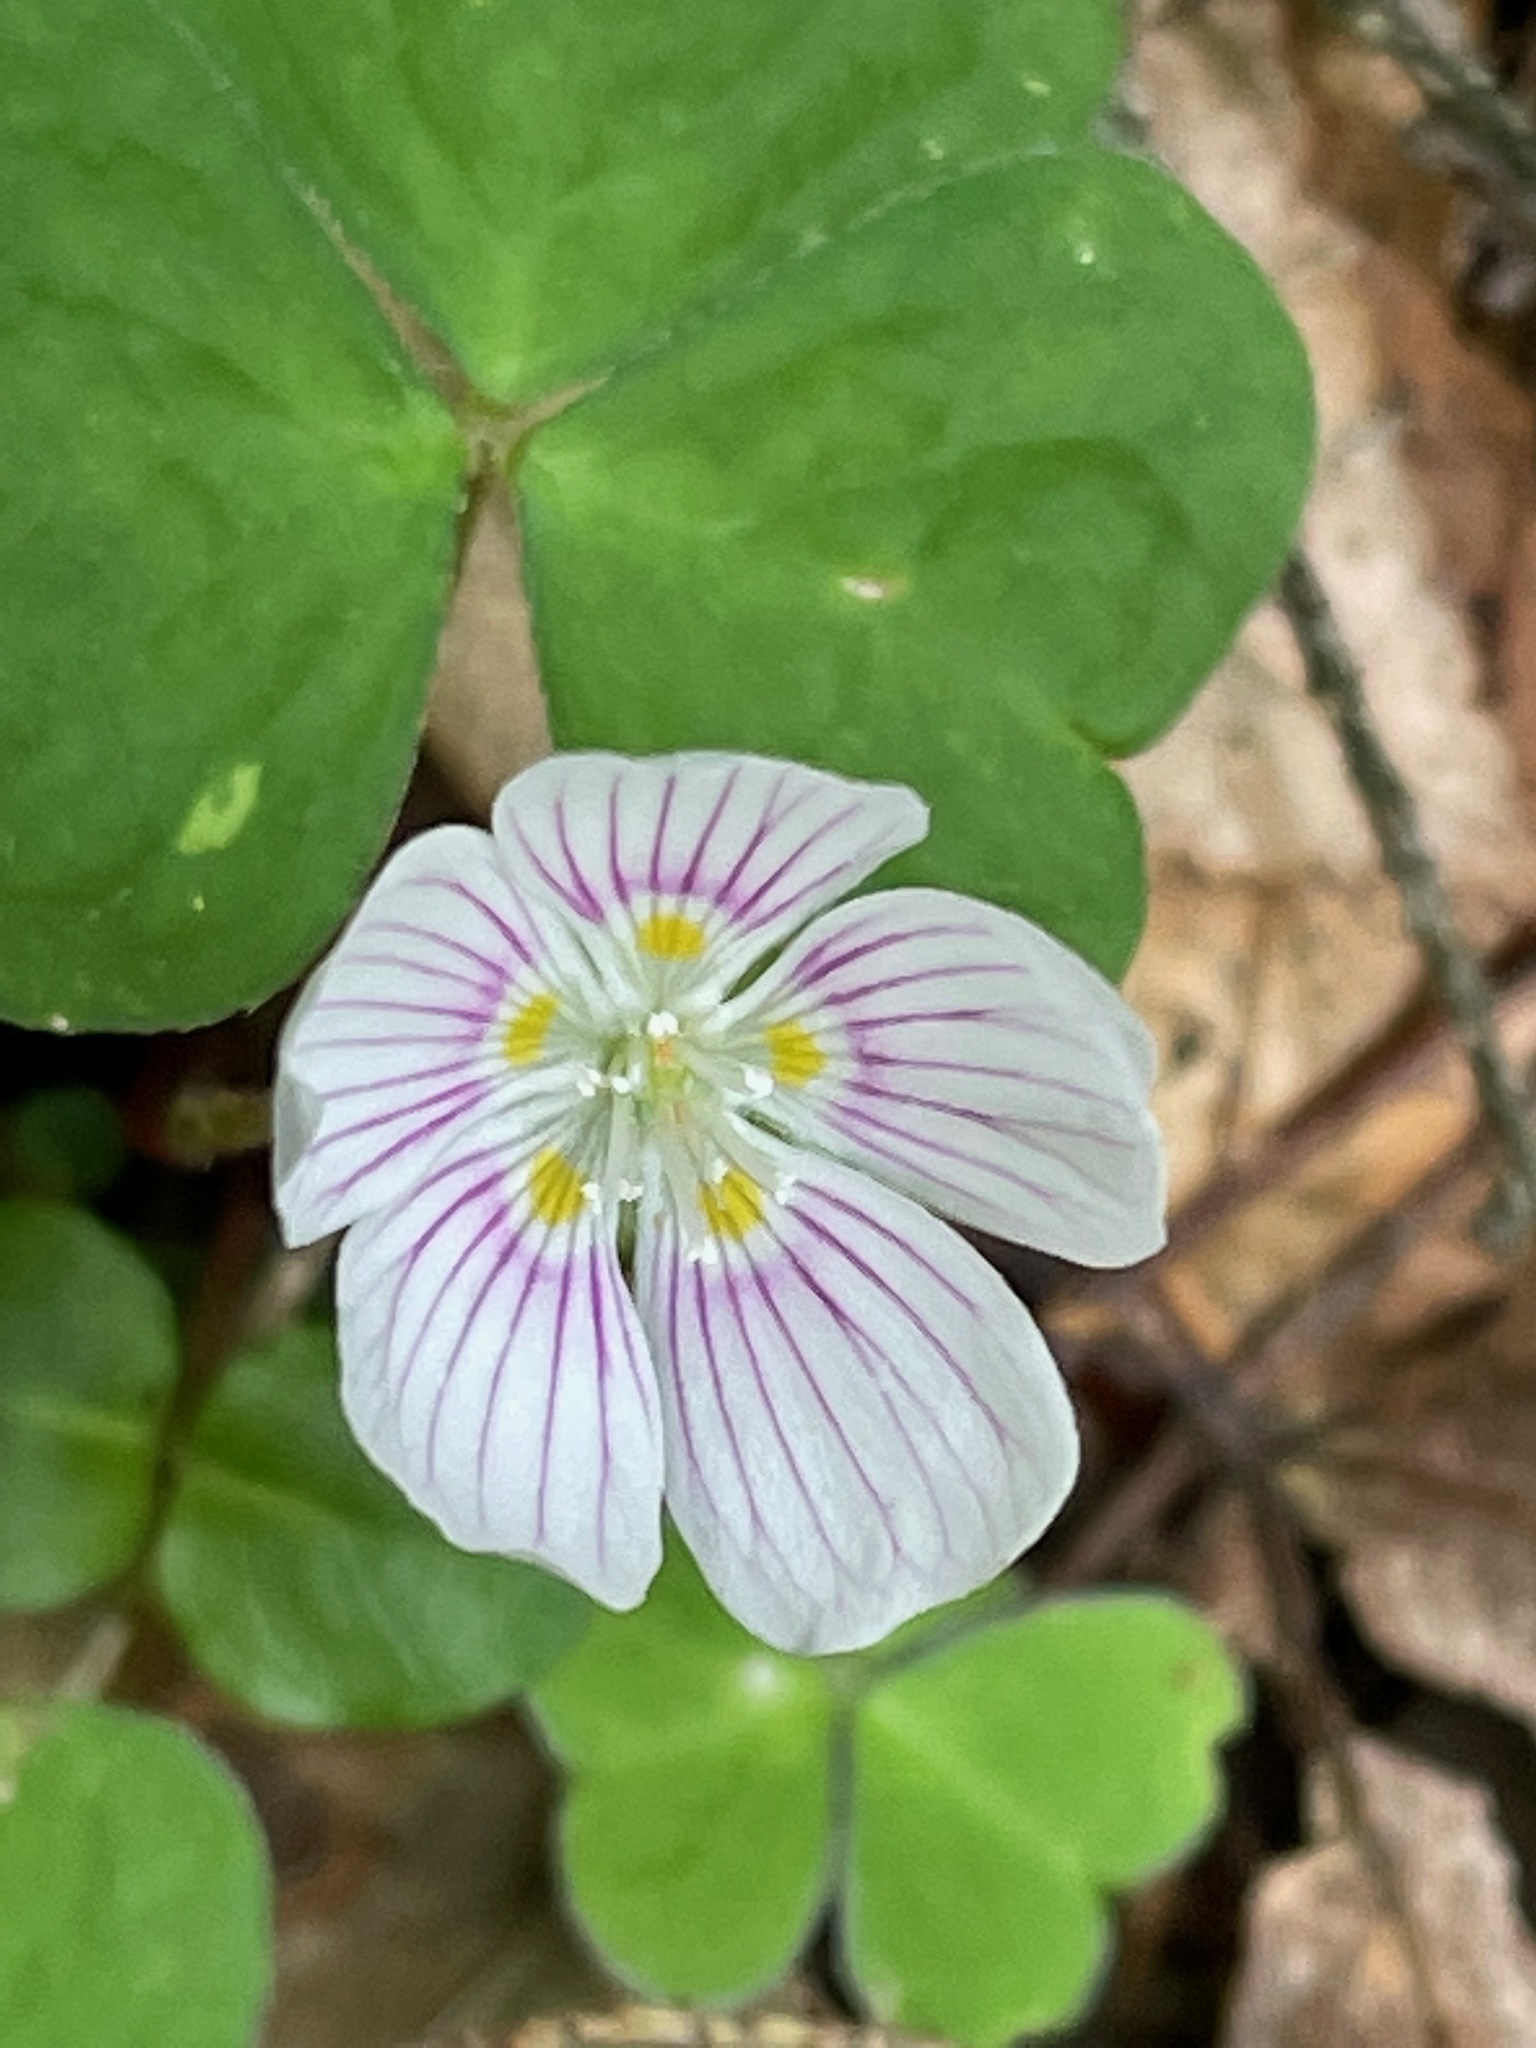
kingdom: Plantae
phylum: Tracheophyta
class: Magnoliopsida
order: Oxalidales
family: Oxalidaceae
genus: Oxalis
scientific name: Oxalis montana
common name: American wood-sorrel
